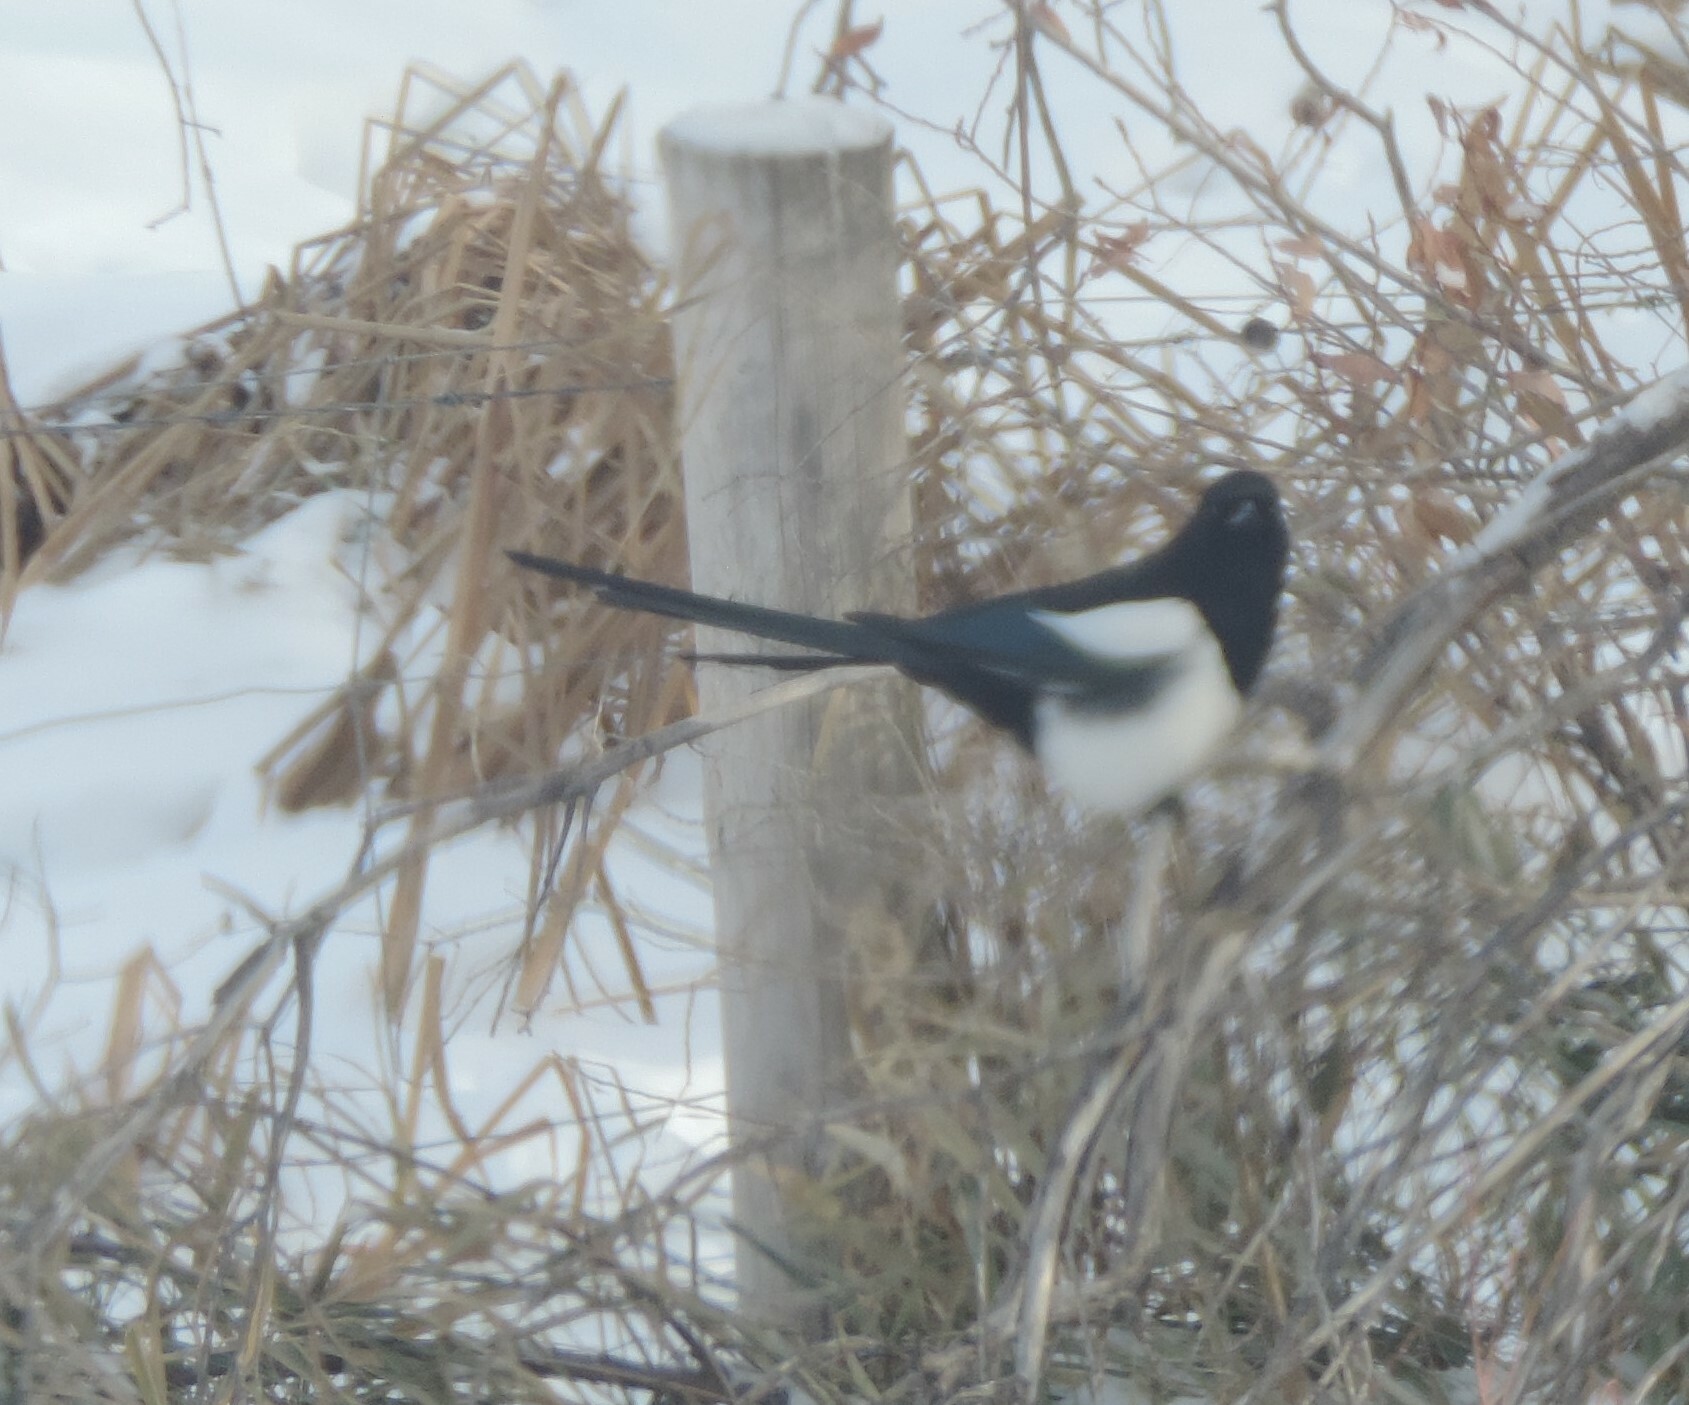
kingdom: Animalia
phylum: Chordata
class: Aves
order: Passeriformes
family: Corvidae
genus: Pica
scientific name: Pica hudsonia
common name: Black-billed magpie
